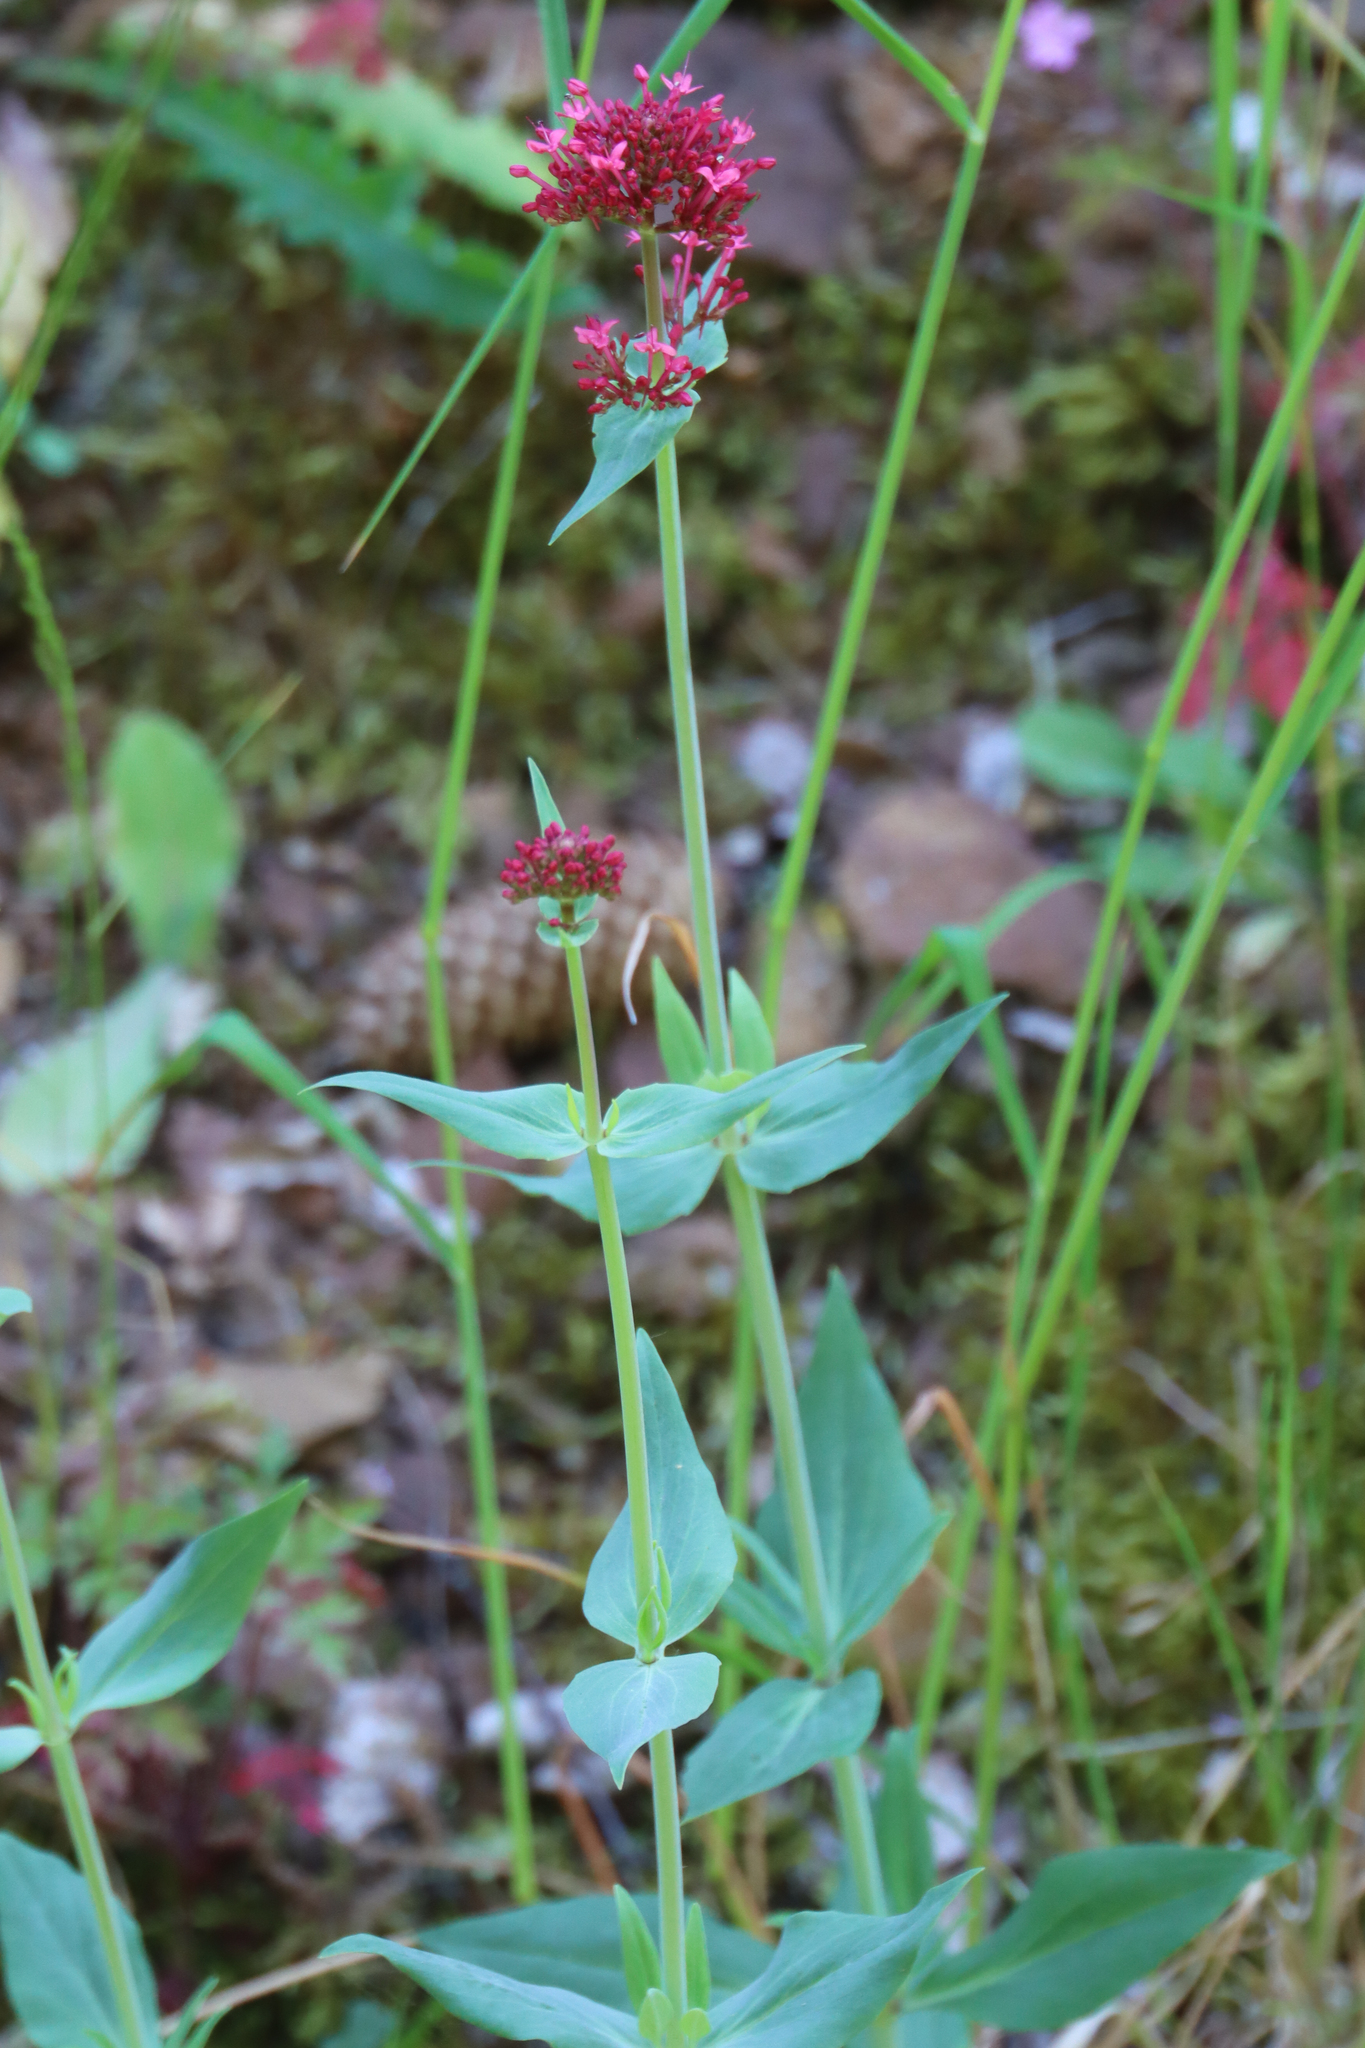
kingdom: Plantae
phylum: Tracheophyta
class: Magnoliopsida
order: Dipsacales
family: Caprifoliaceae
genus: Centranthus
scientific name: Centranthus ruber
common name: Red valerian
